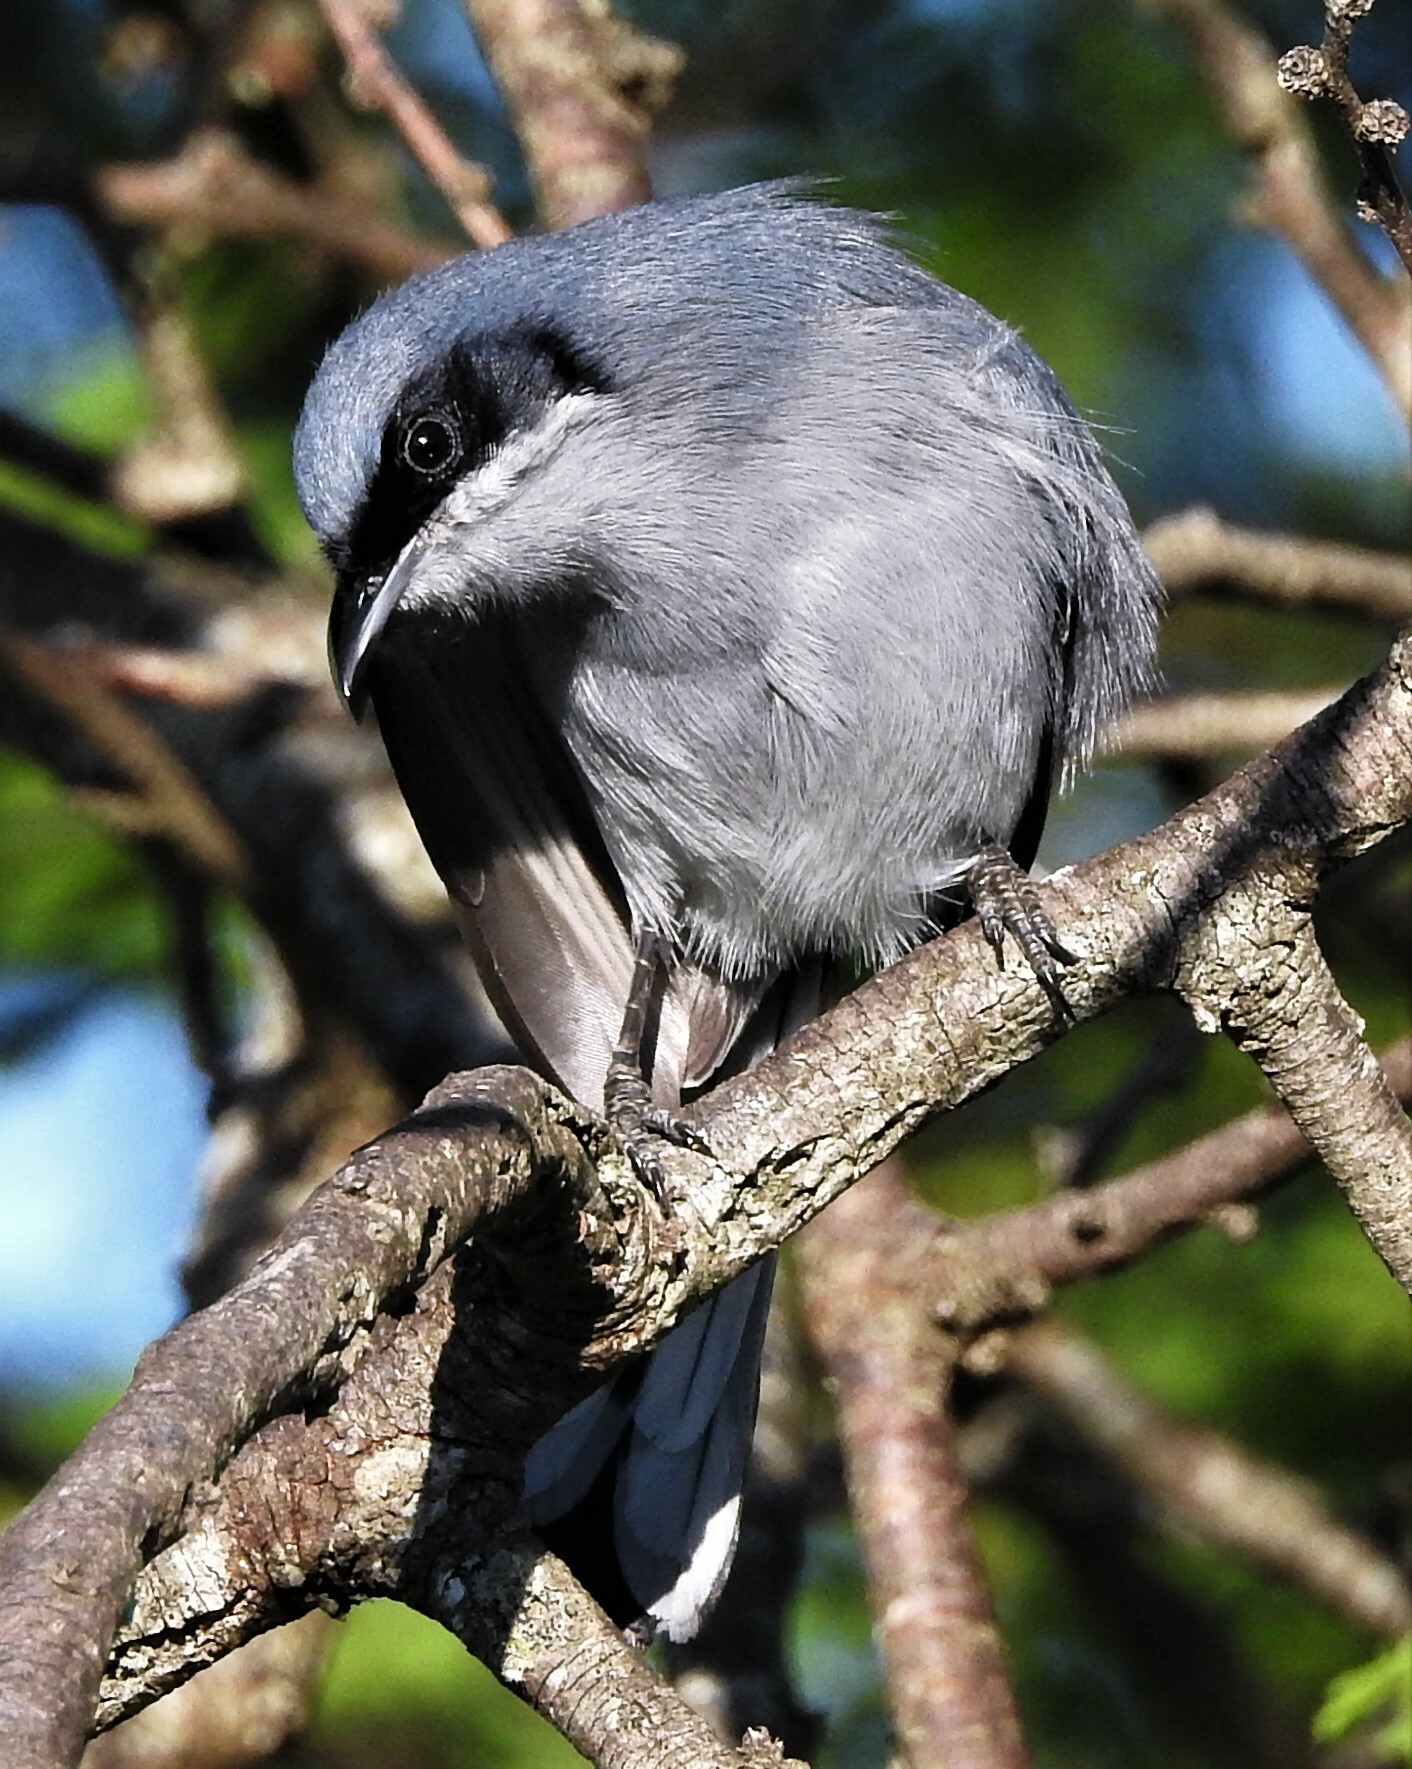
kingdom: Animalia
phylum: Chordata
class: Aves
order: Passeriformes
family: Polioptilidae
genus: Polioptila
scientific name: Polioptila dumicola
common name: Masked gnatcatcher
